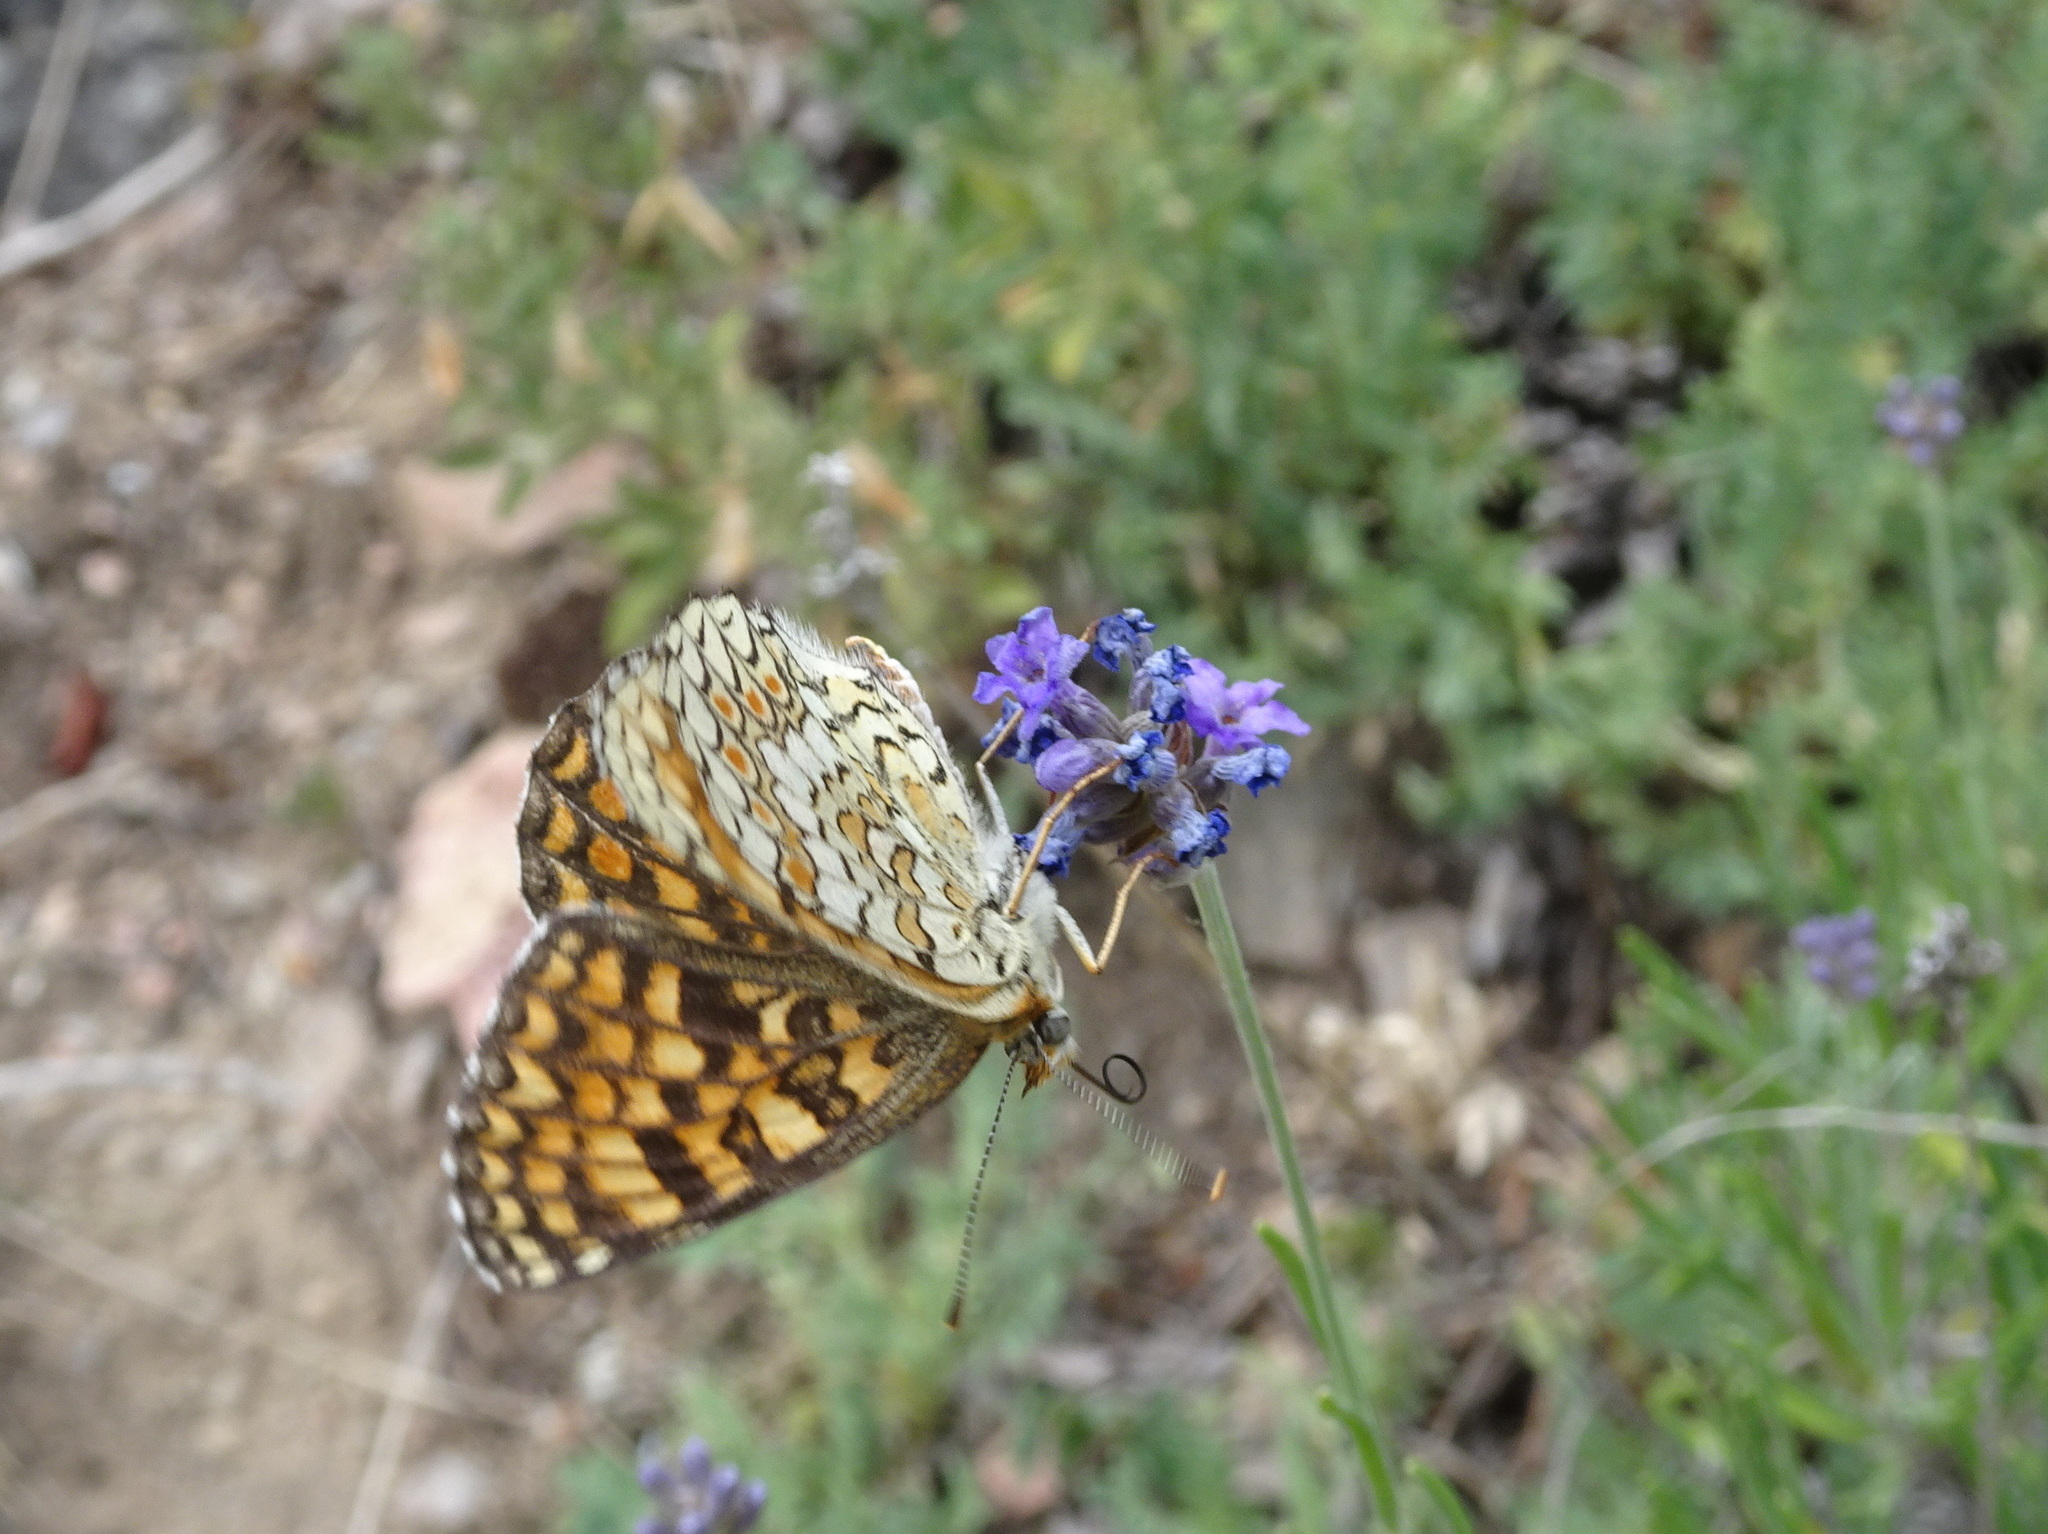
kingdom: Animalia
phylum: Arthropoda
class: Insecta
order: Lepidoptera
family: Nymphalidae
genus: Melitaea
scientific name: Melitaea phoebe
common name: Knapweed fritillary
